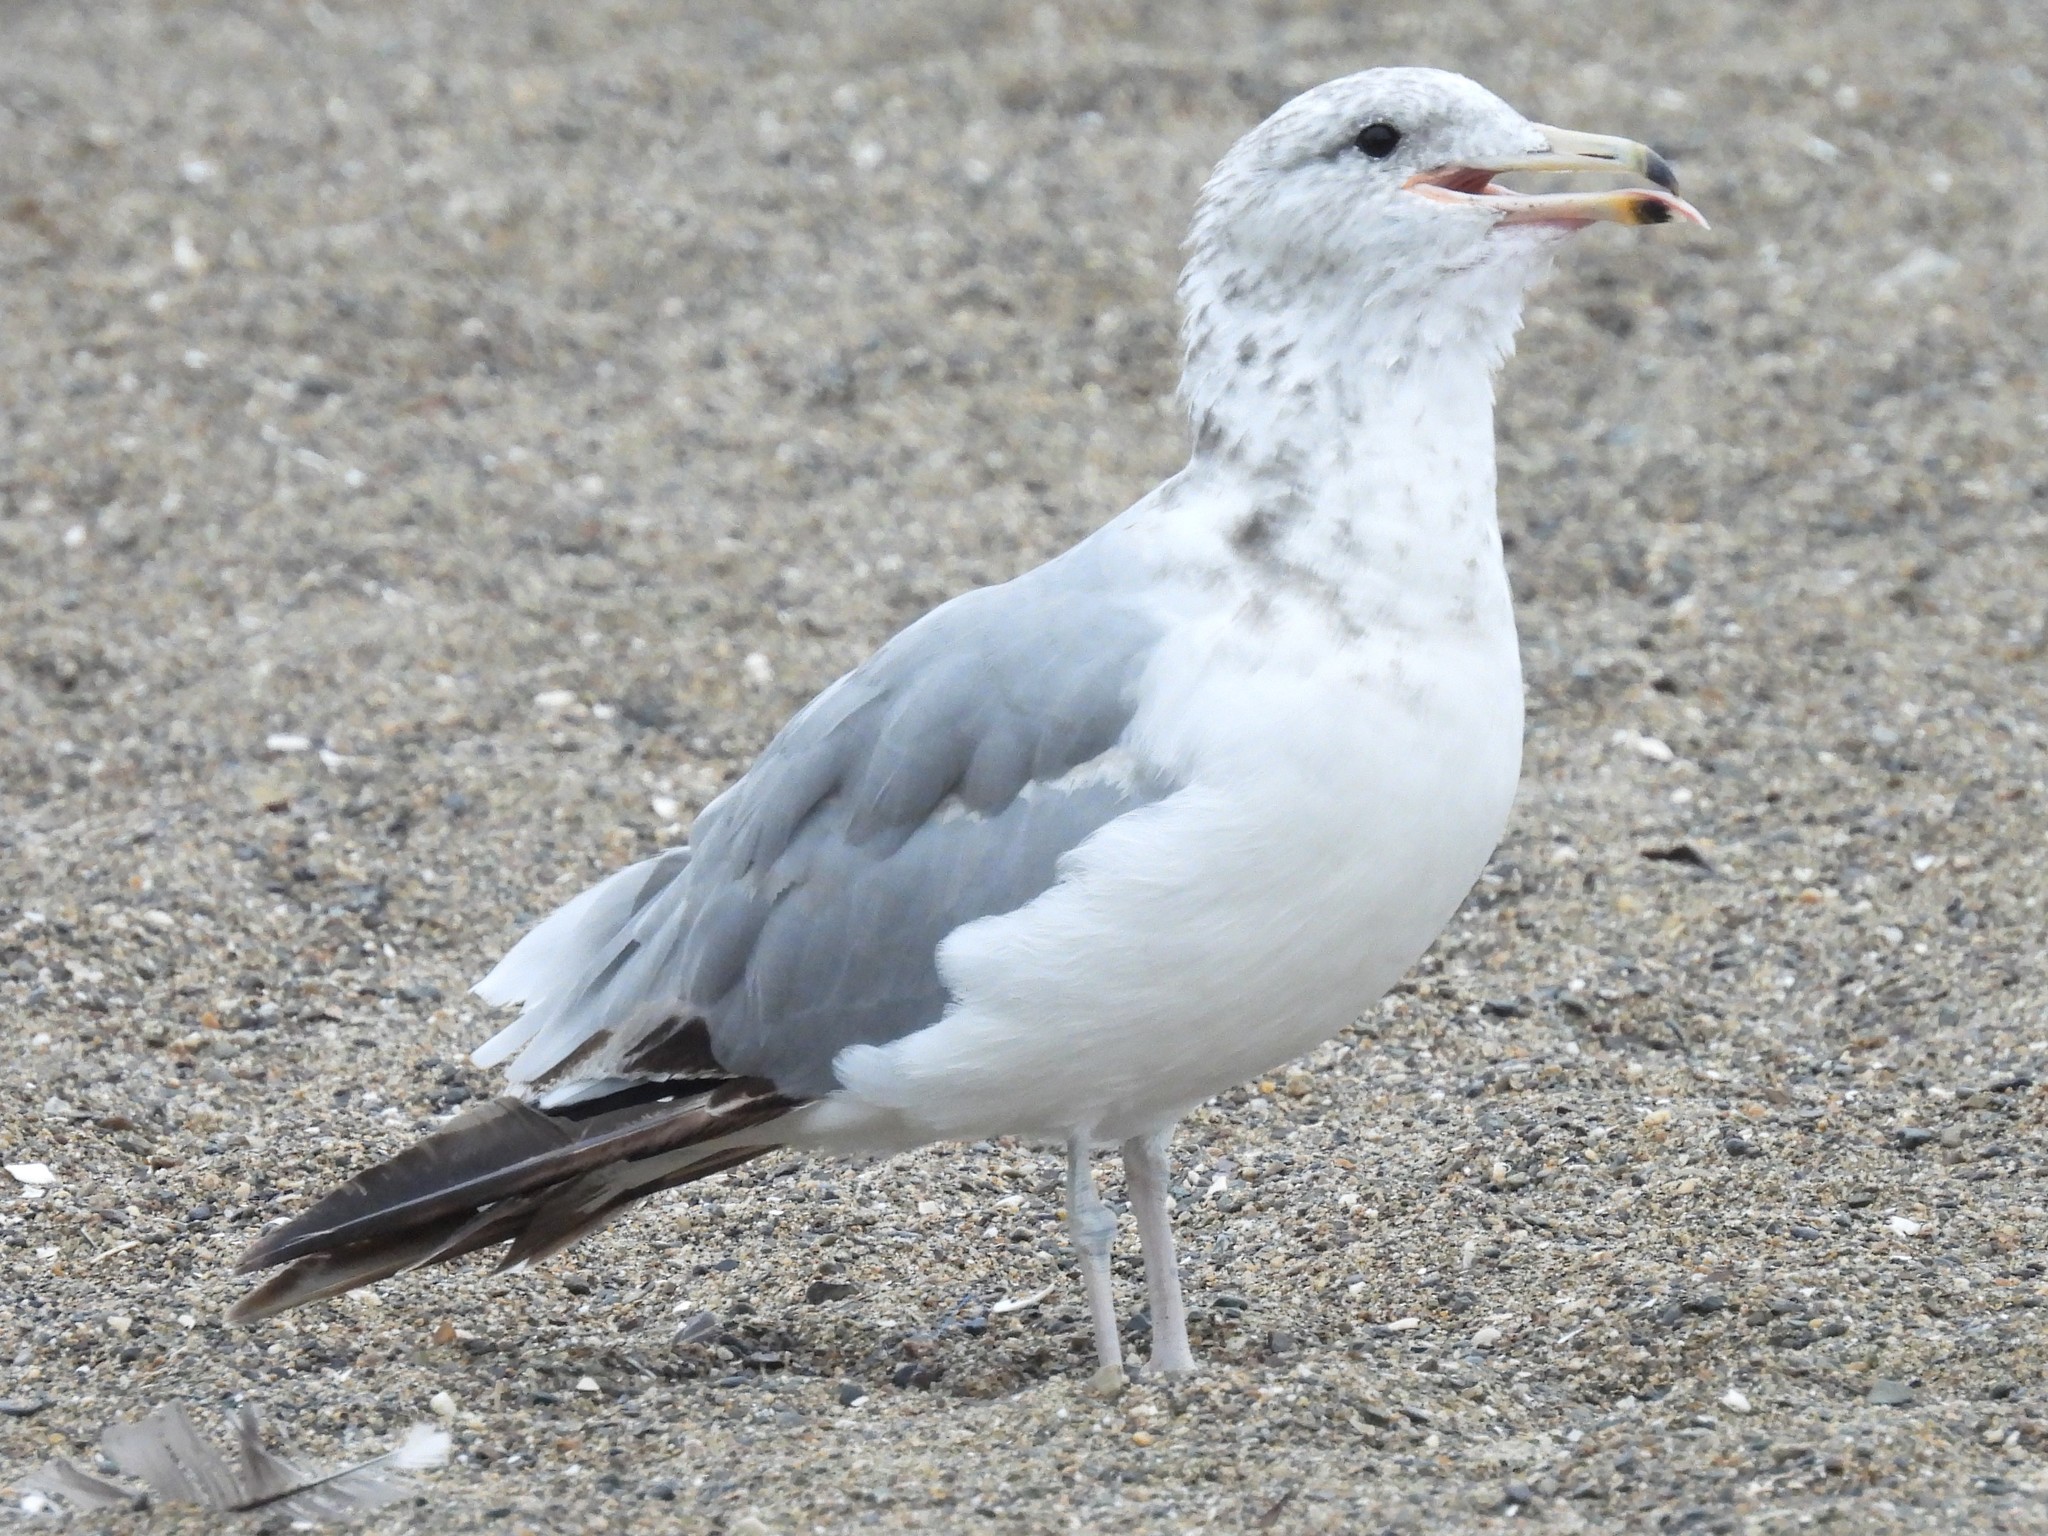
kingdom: Animalia
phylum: Chordata
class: Aves
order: Charadriiformes
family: Laridae
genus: Larus
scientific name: Larus californicus
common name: California gull
